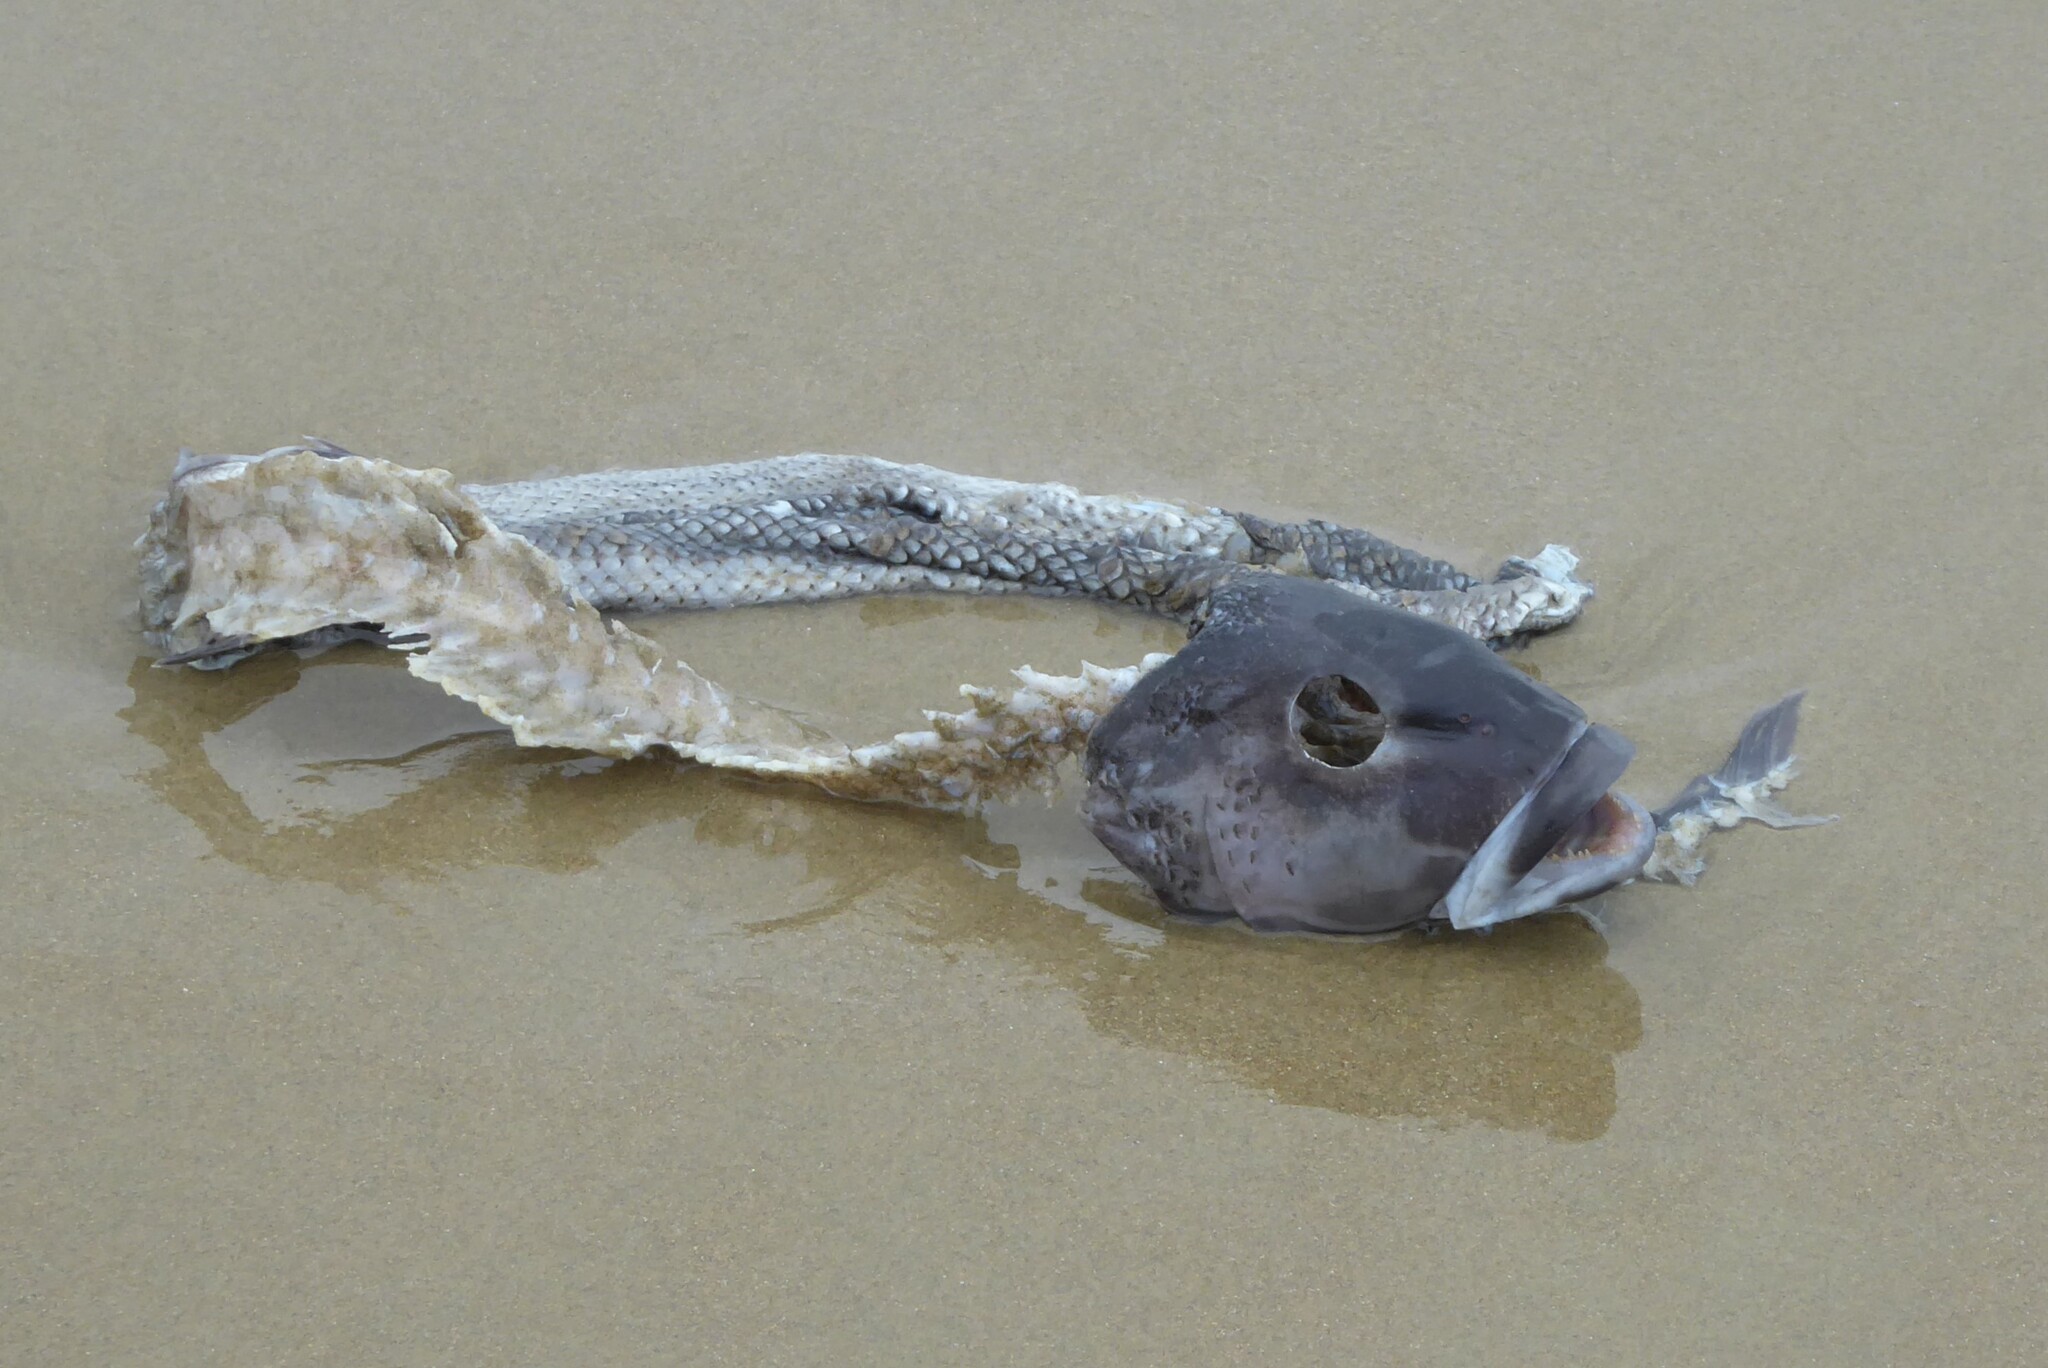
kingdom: Animalia
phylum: Chordata
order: Perciformes
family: Pinguipedidae
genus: Parapercis
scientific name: Parapercis colias
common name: Blue cod
